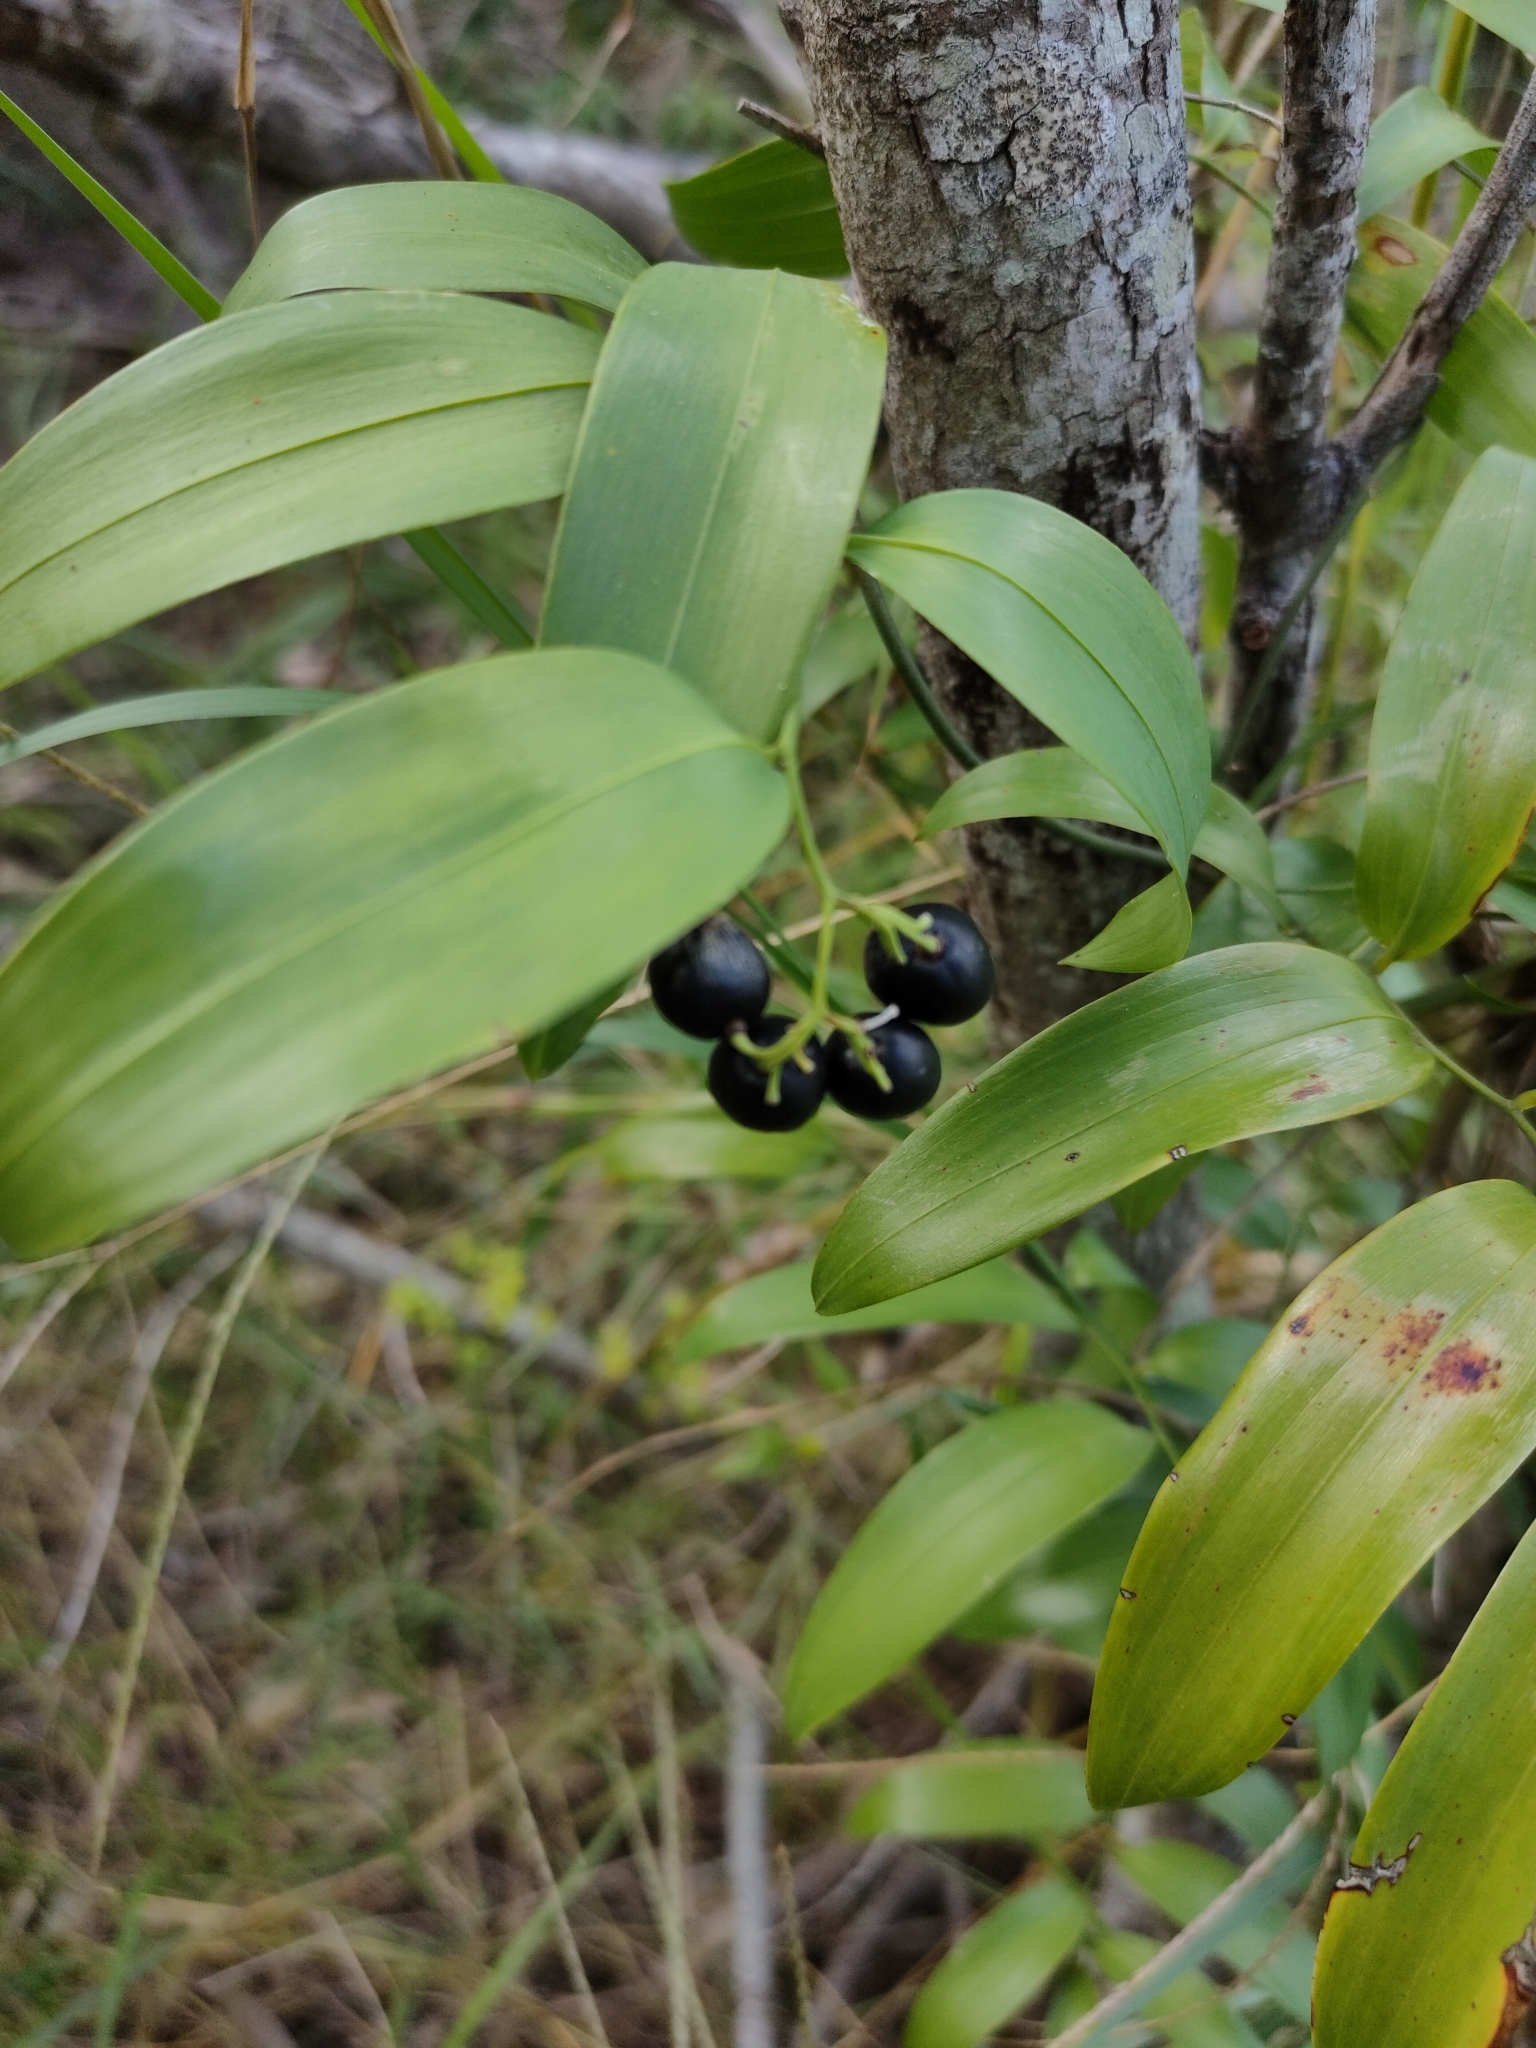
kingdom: Plantae
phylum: Tracheophyta
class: Liliopsida
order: Asparagales
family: Asphodelaceae
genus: Geitonoplesium
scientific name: Geitonoplesium cymosum
